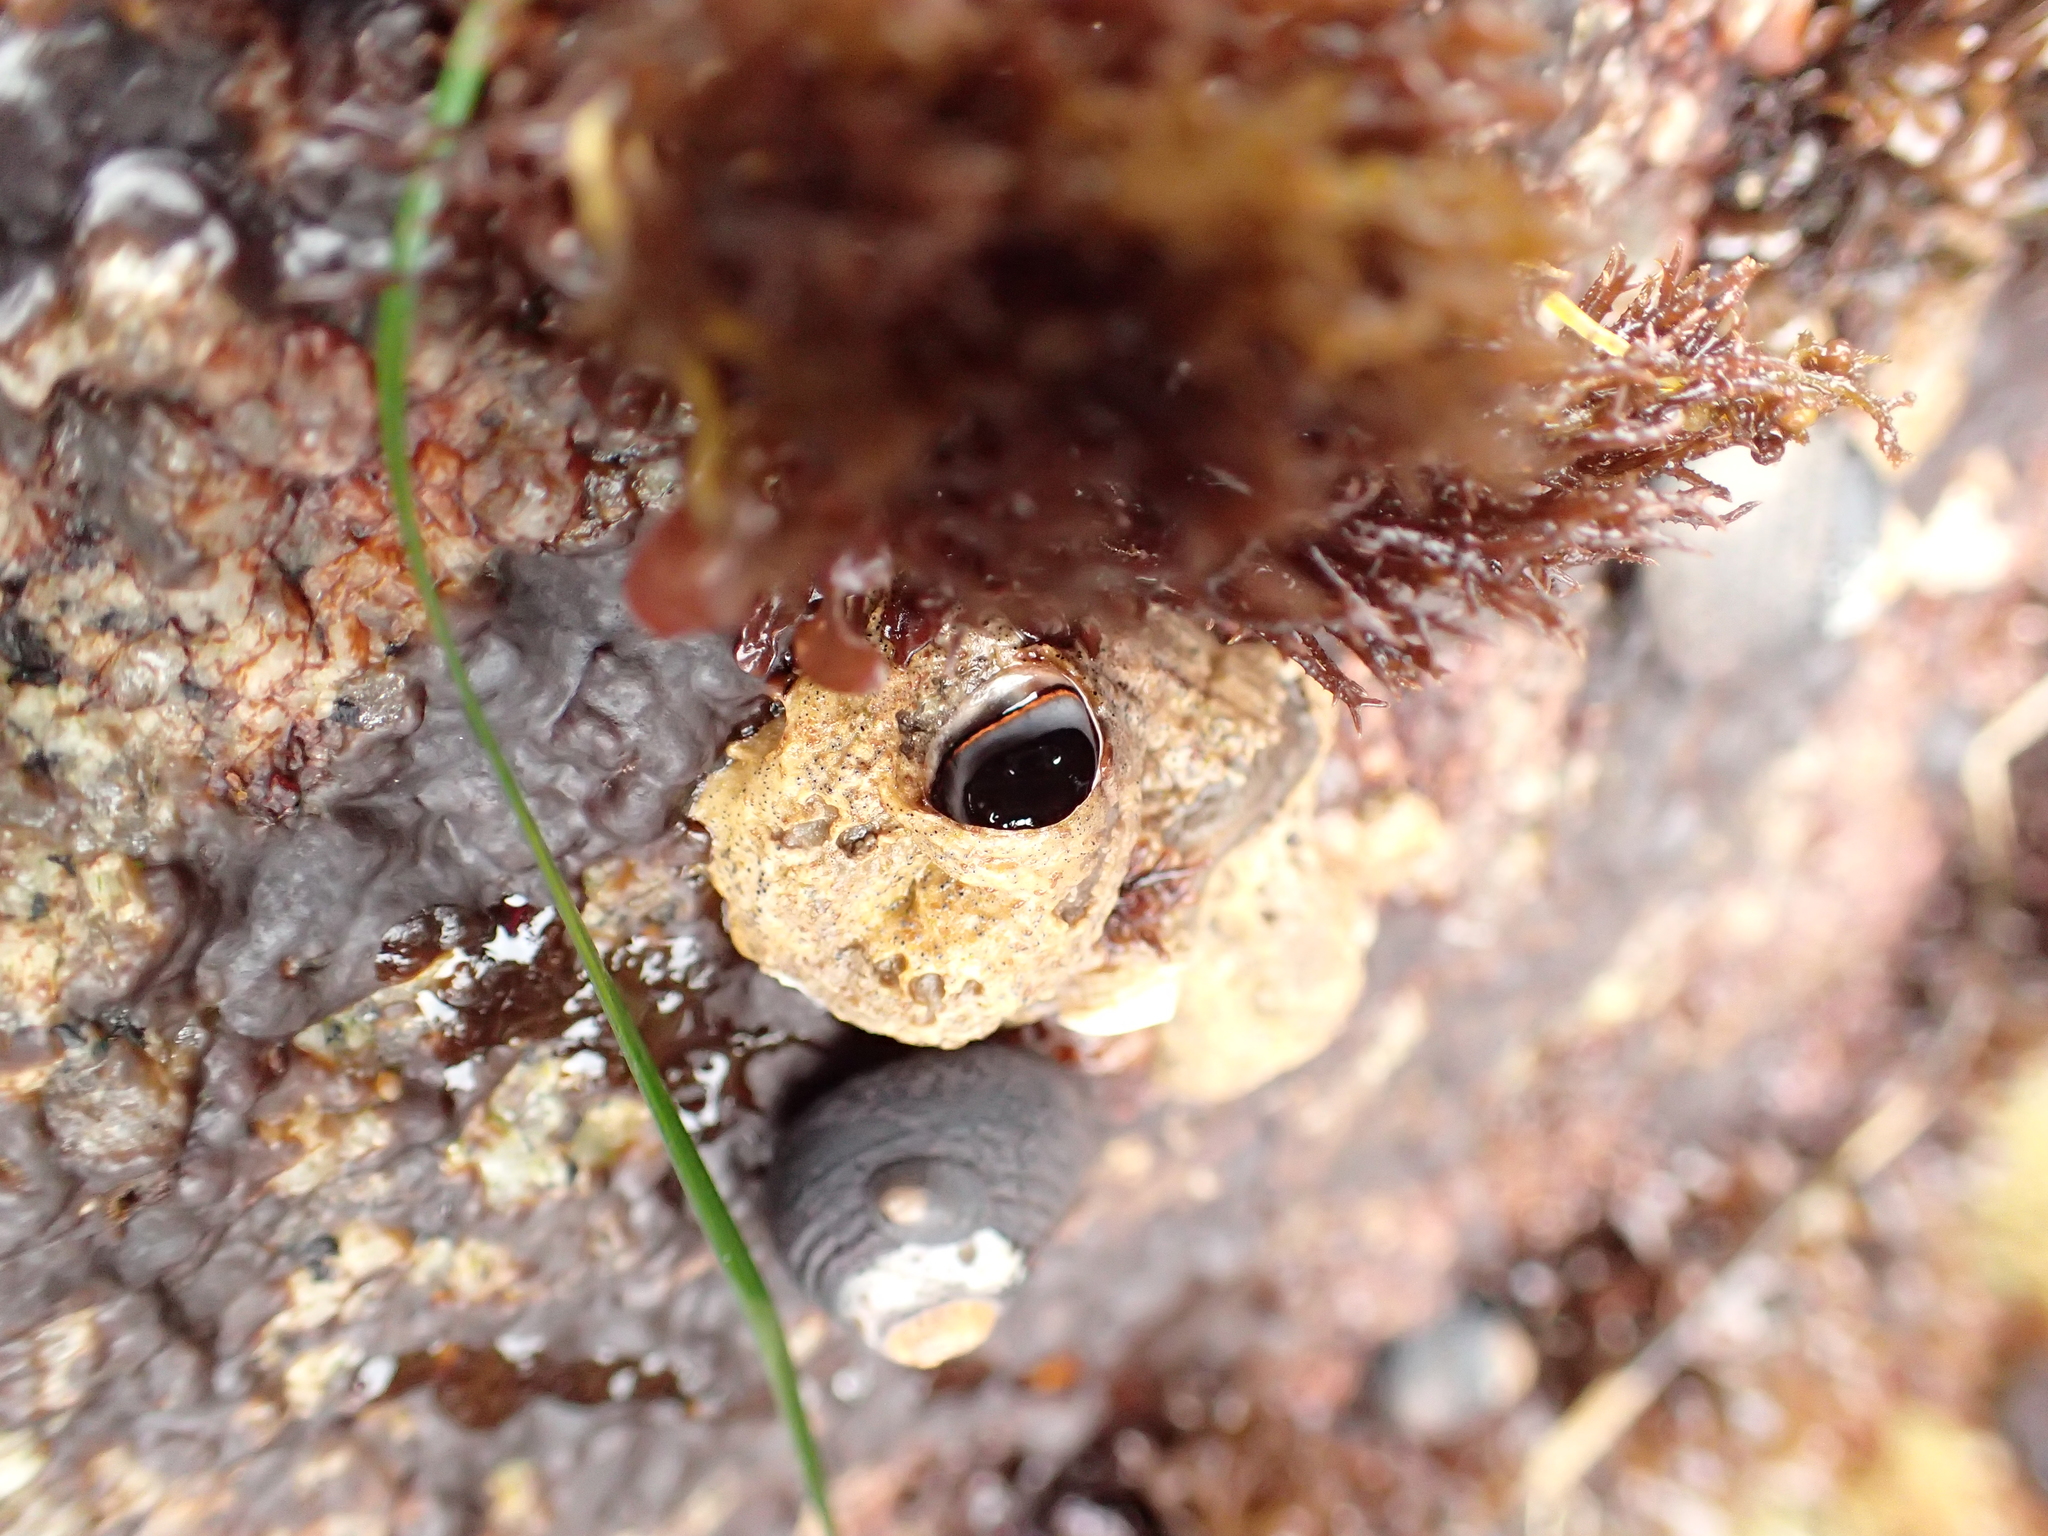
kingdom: Animalia
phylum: Mollusca
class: Gastropoda
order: Littorinimorpha
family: Vermetidae
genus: Thylacodes
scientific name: Thylacodes squamigerus
